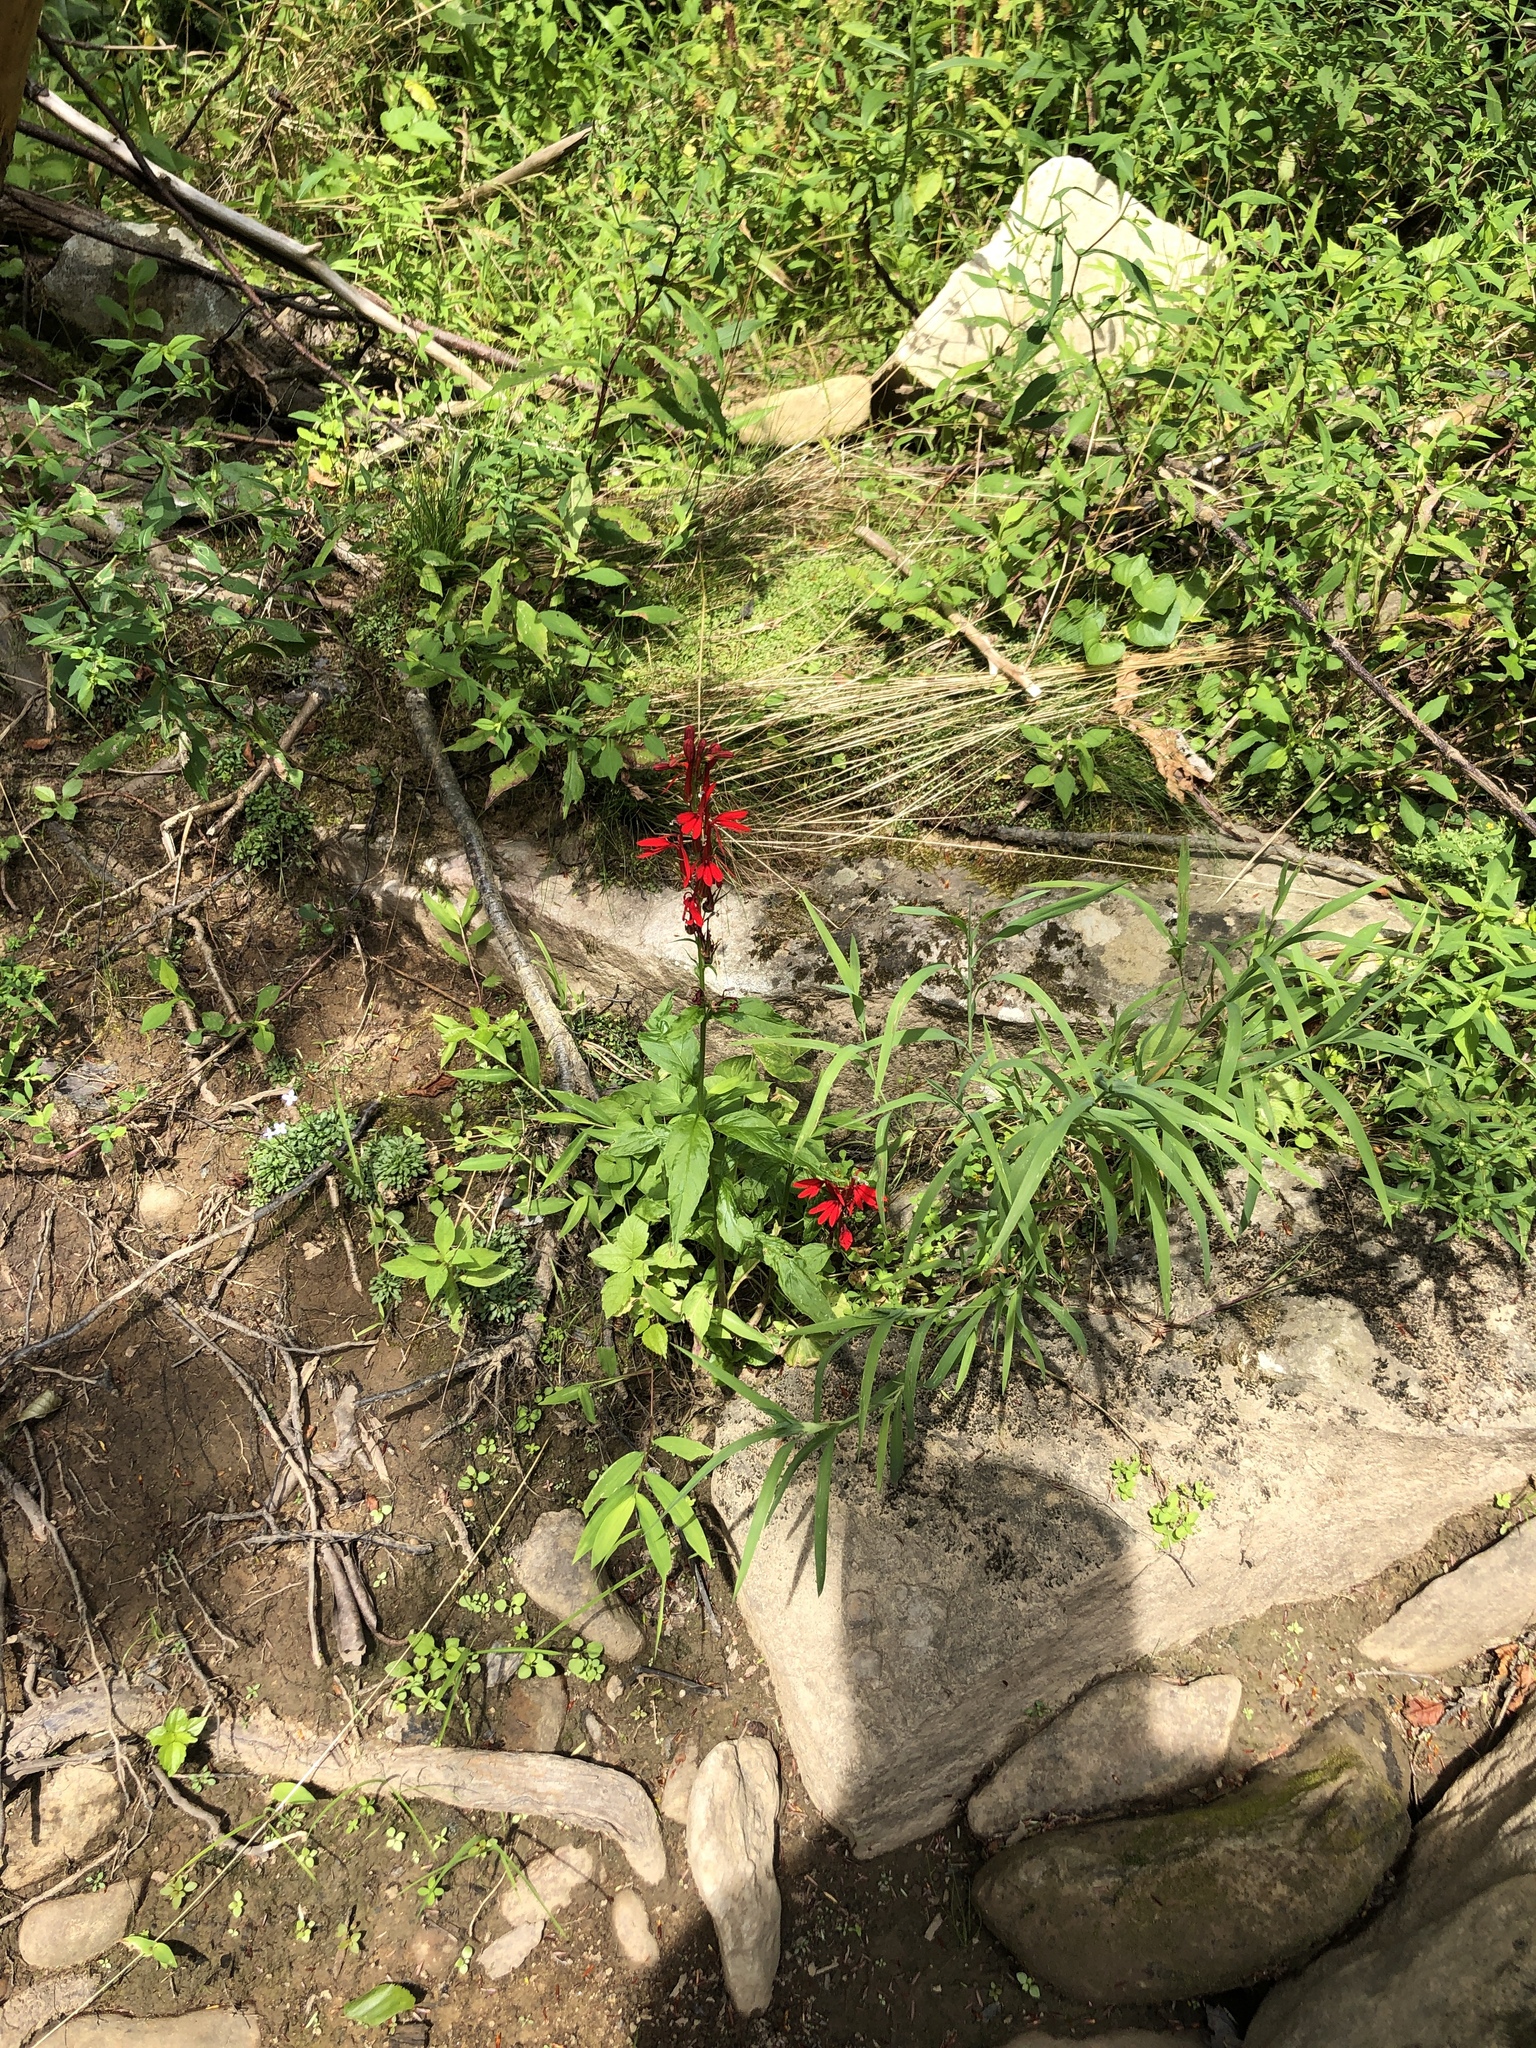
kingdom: Plantae
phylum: Tracheophyta
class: Magnoliopsida
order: Asterales
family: Campanulaceae
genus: Lobelia
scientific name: Lobelia cardinalis
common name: Cardinal flower
